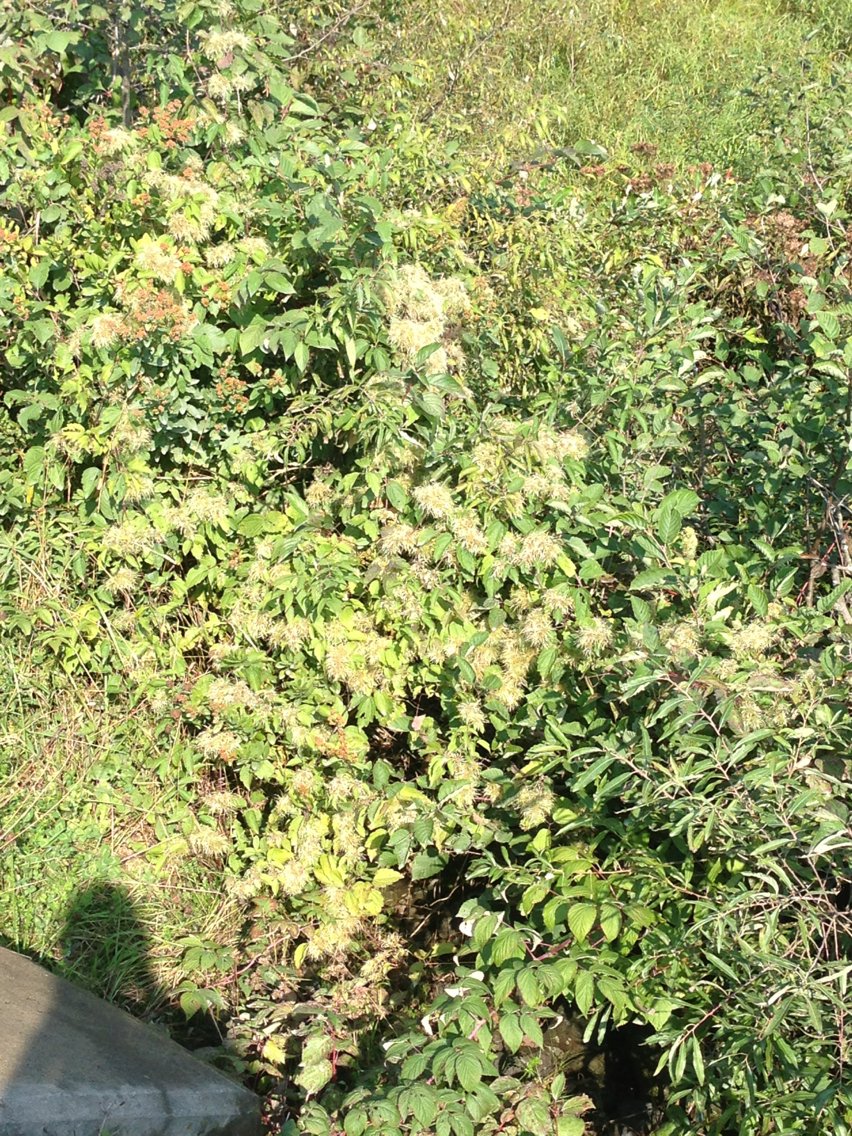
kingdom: Plantae
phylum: Tracheophyta
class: Magnoliopsida
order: Ranunculales
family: Ranunculaceae
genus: Clematis
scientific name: Clematis virginiana
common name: Virgin's-bower
